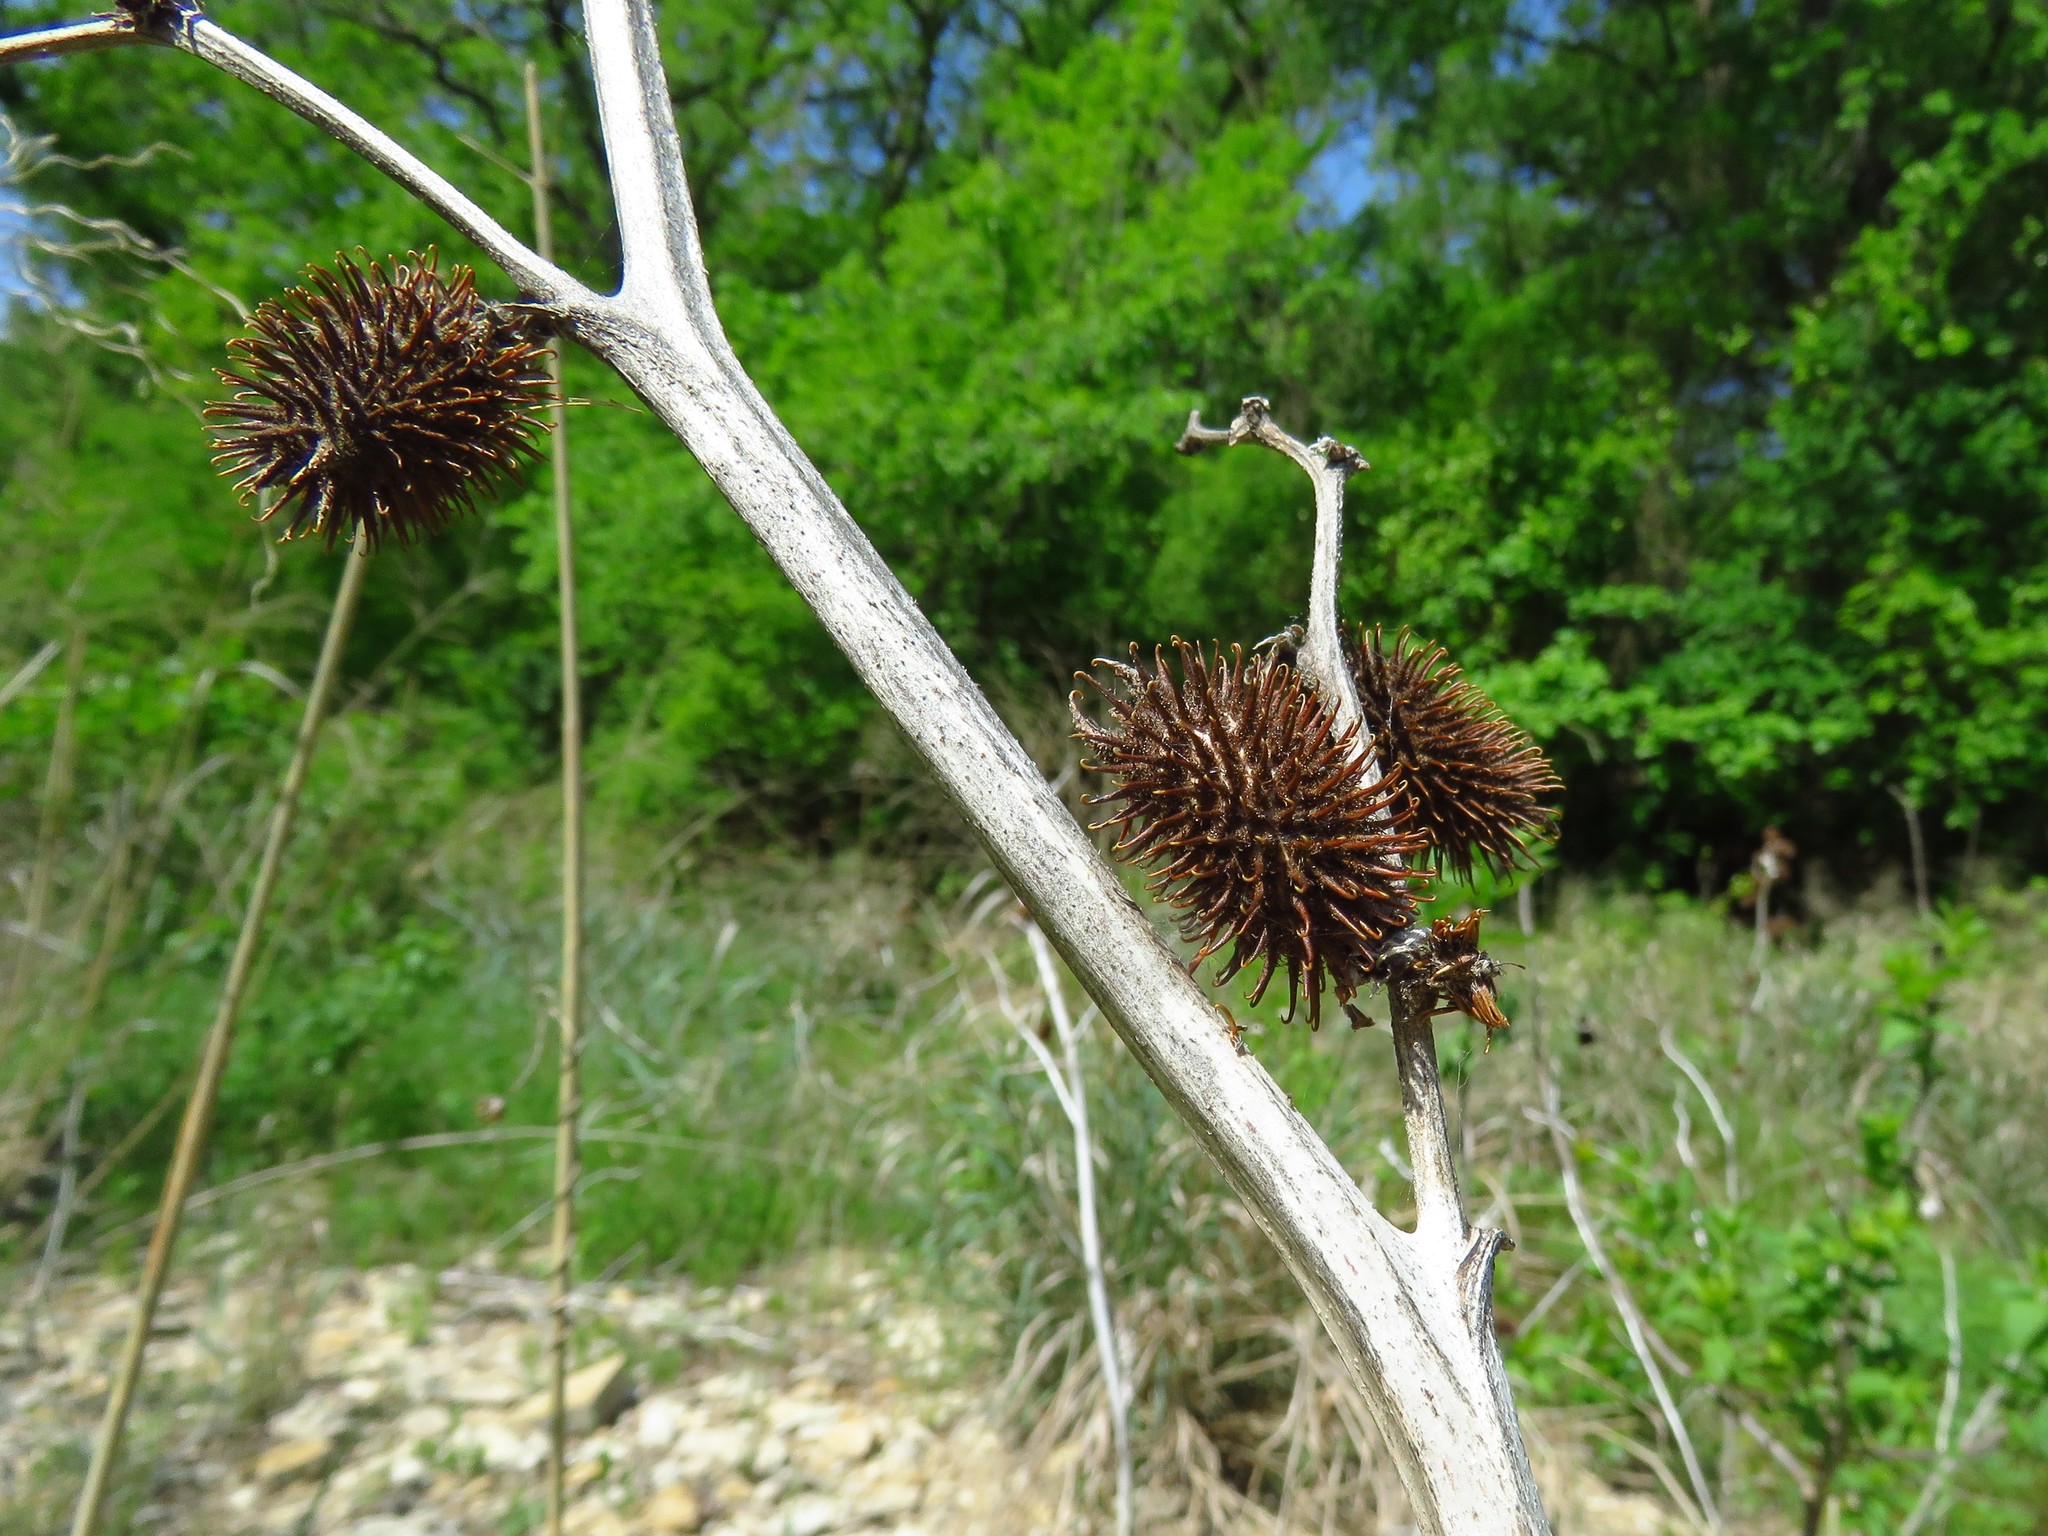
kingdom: Plantae
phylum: Tracheophyta
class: Magnoliopsida
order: Asterales
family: Asteraceae
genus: Xanthium
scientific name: Xanthium strumarium
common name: Rough cocklebur
